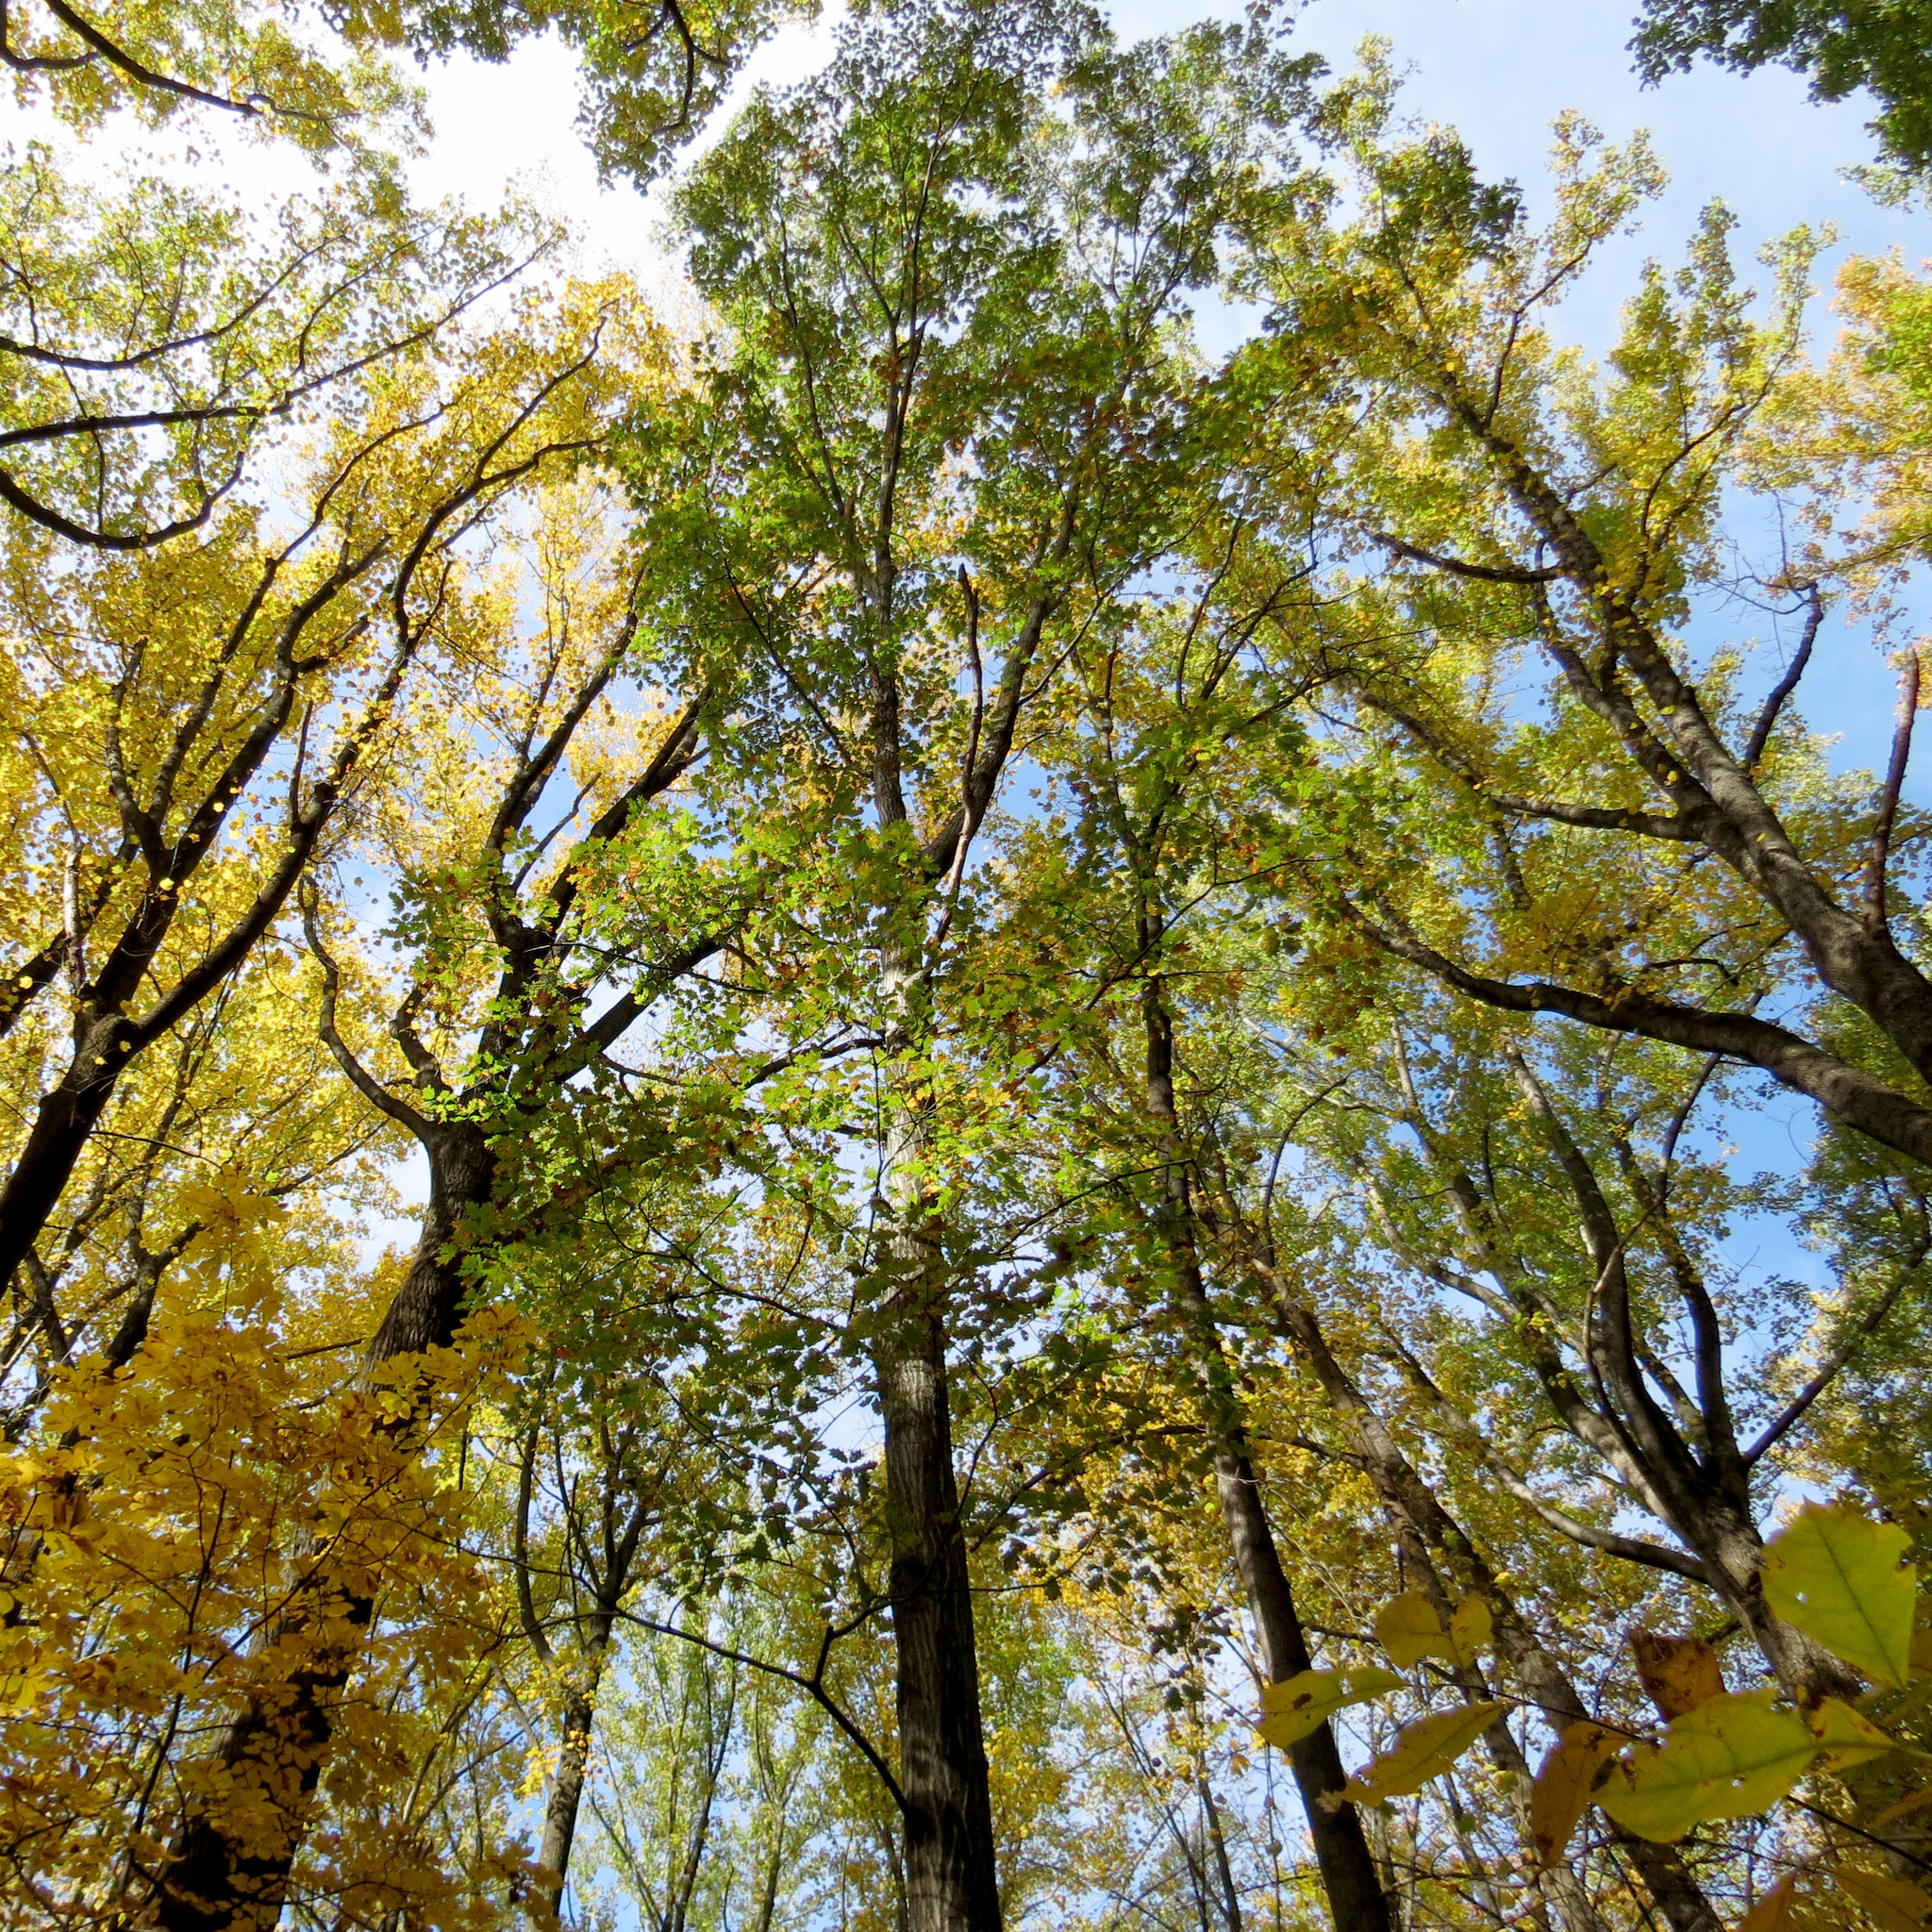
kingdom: Plantae
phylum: Tracheophyta
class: Magnoliopsida
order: Fagales
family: Fagaceae
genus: Quercus
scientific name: Quercus rubra
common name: Red oak
